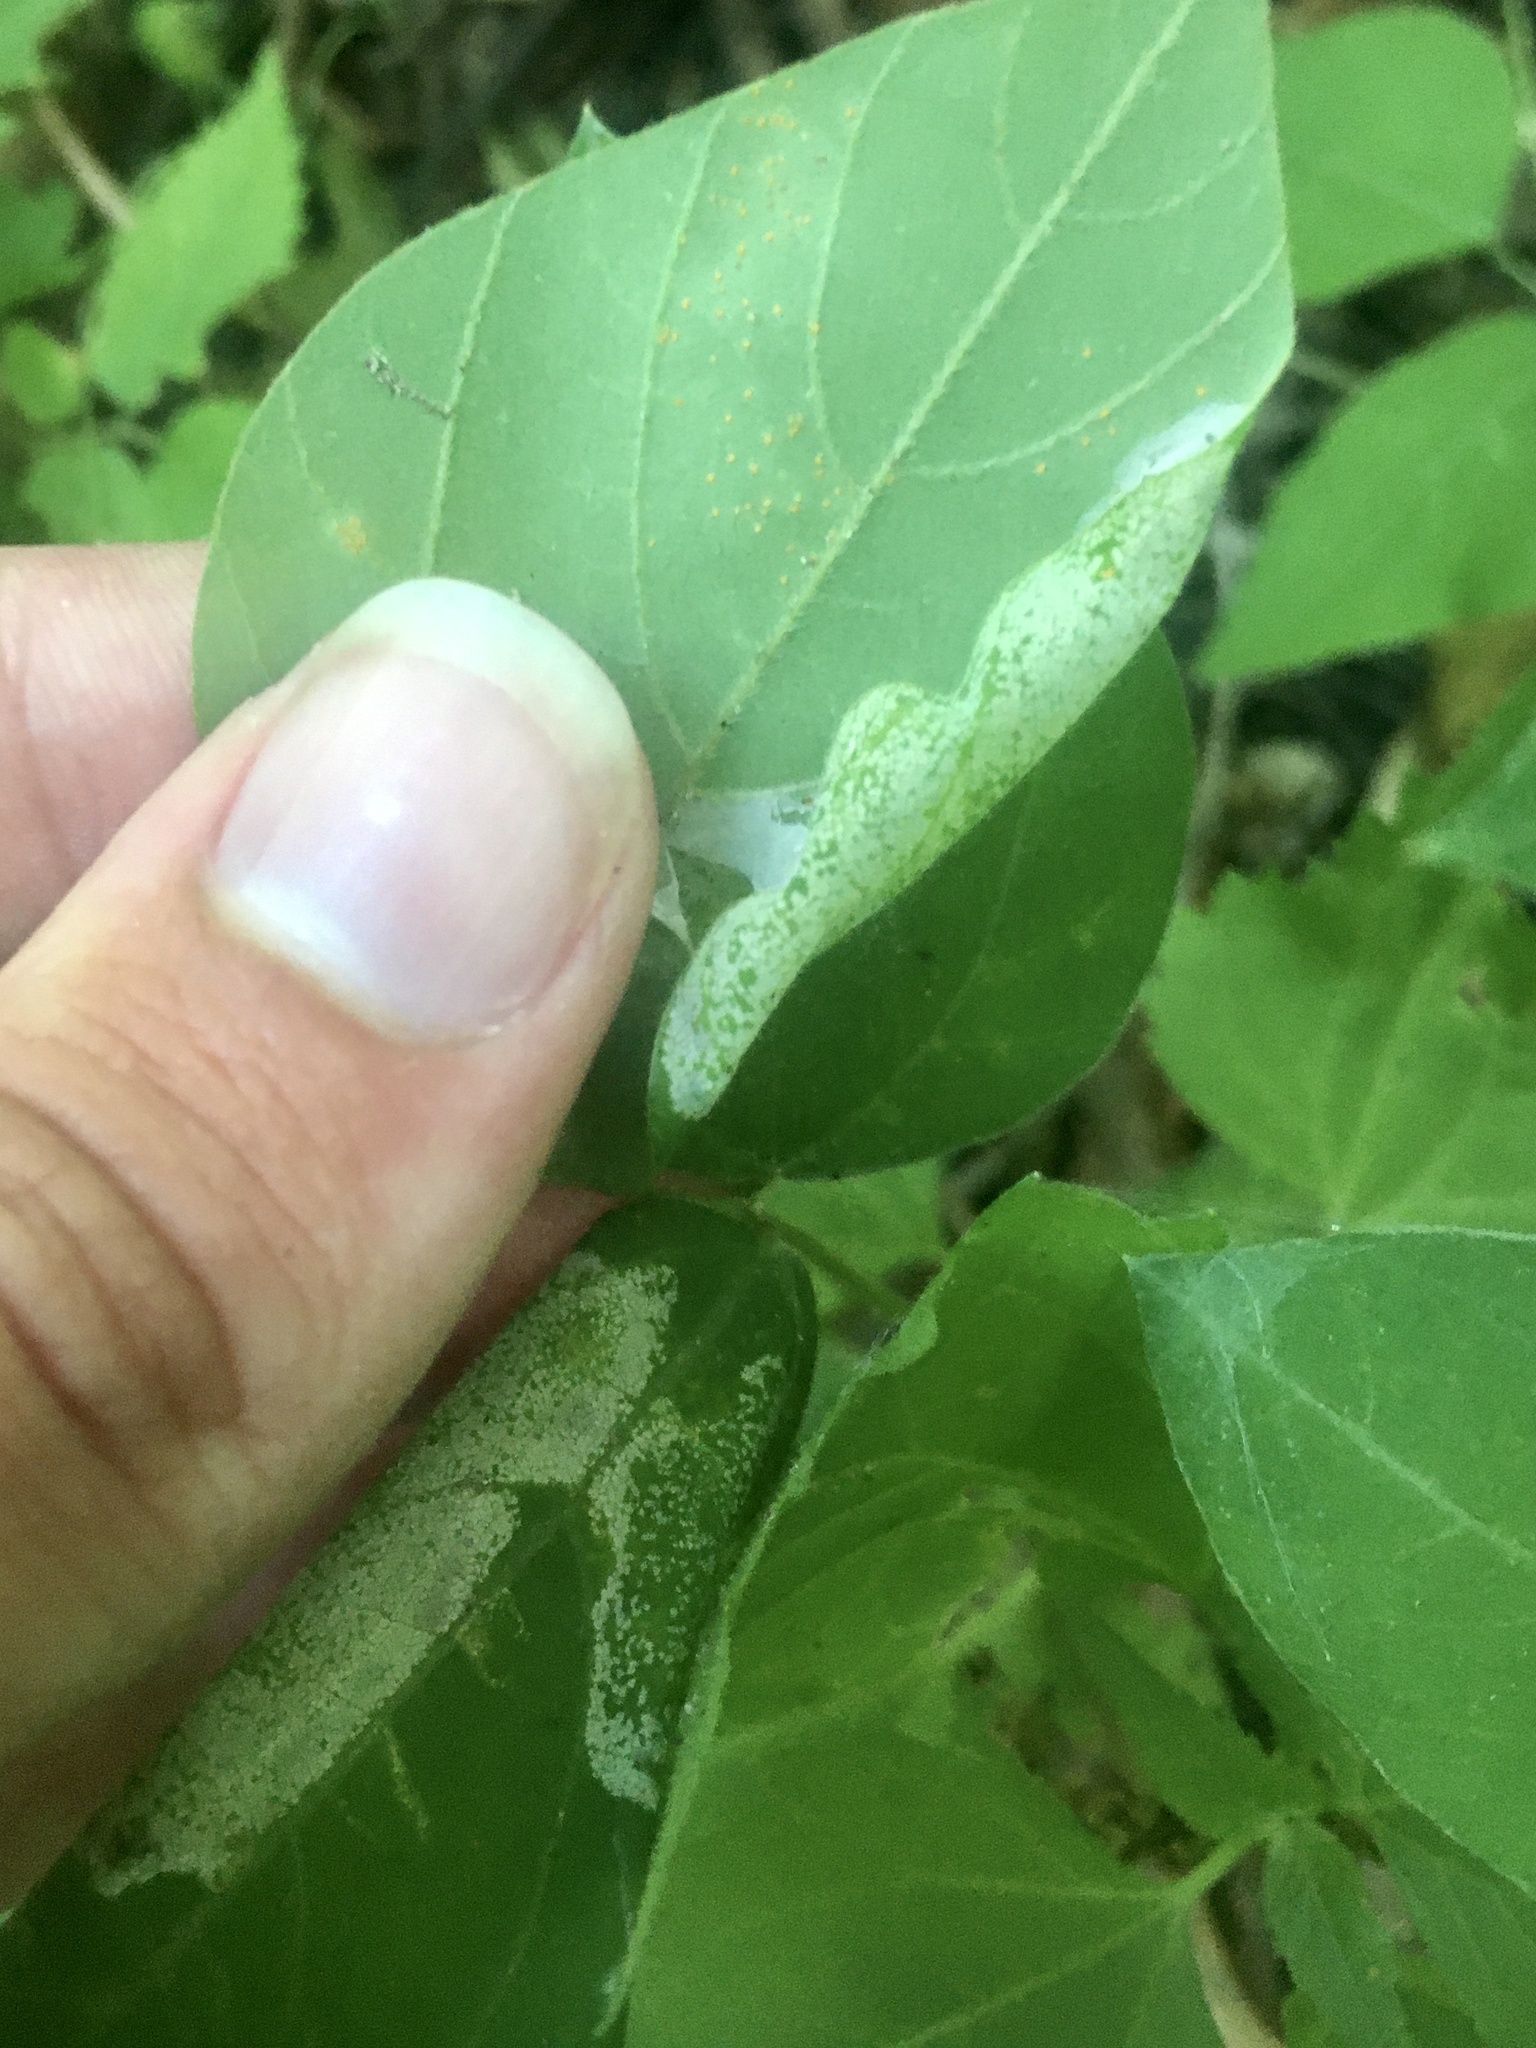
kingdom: Animalia
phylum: Arthropoda
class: Insecta
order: Lepidoptera
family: Gracillariidae
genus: Macrosaccus
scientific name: Macrosaccus morrisella
